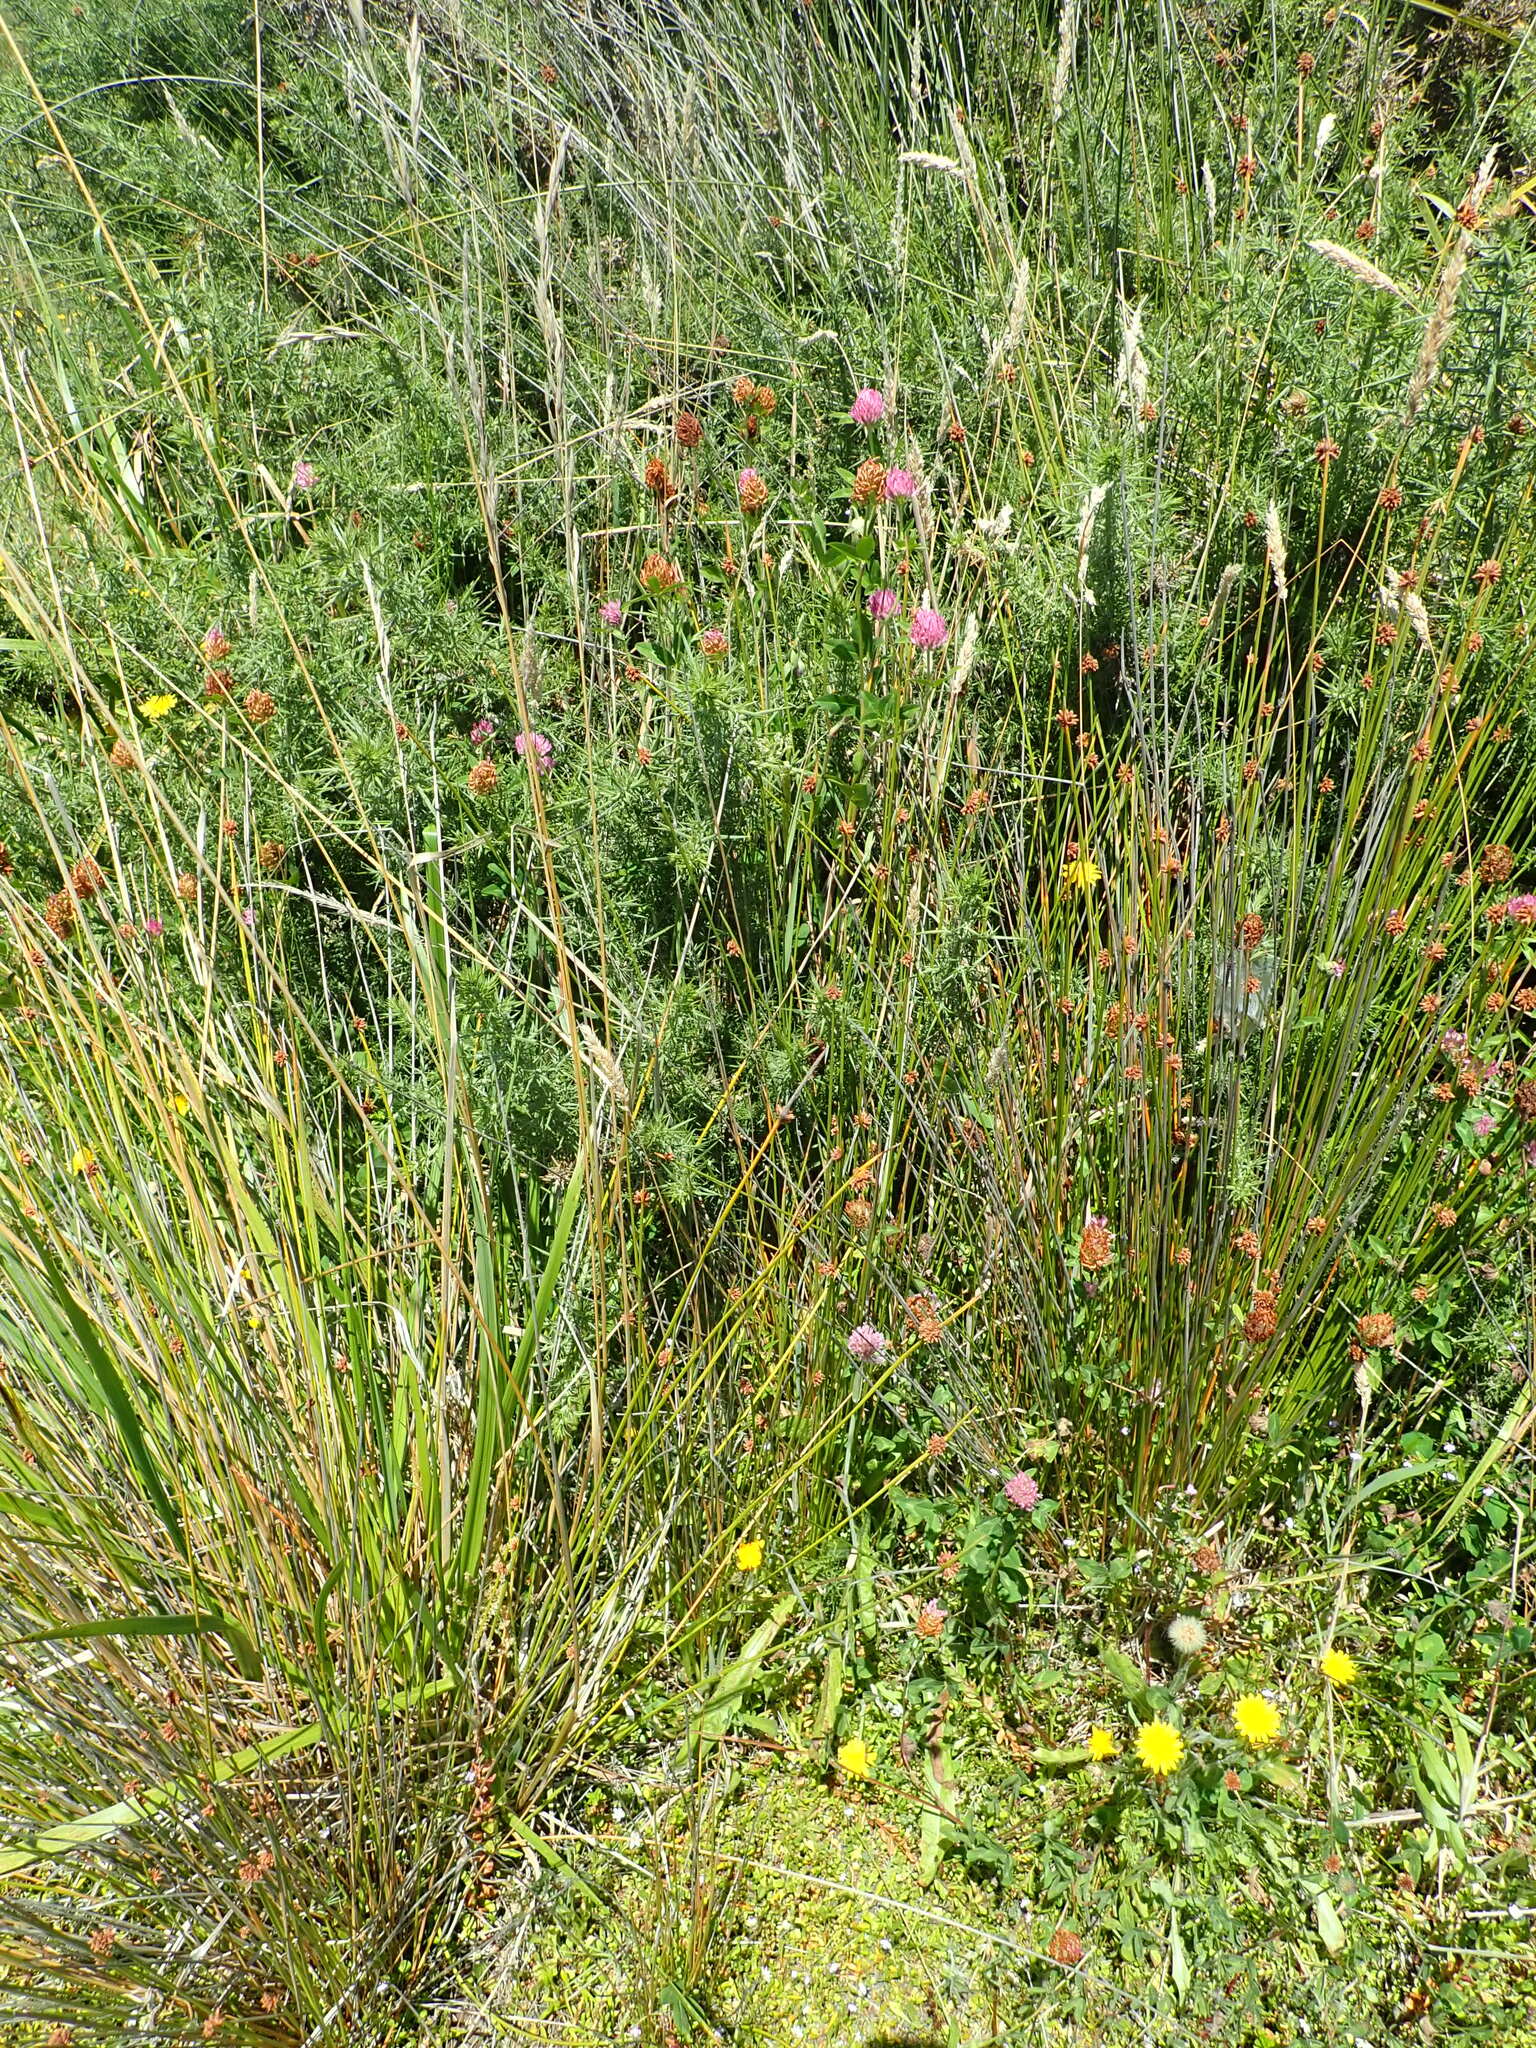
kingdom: Plantae
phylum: Tracheophyta
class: Magnoliopsida
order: Fabales
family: Fabaceae
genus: Trifolium
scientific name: Trifolium pratense
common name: Red clover
